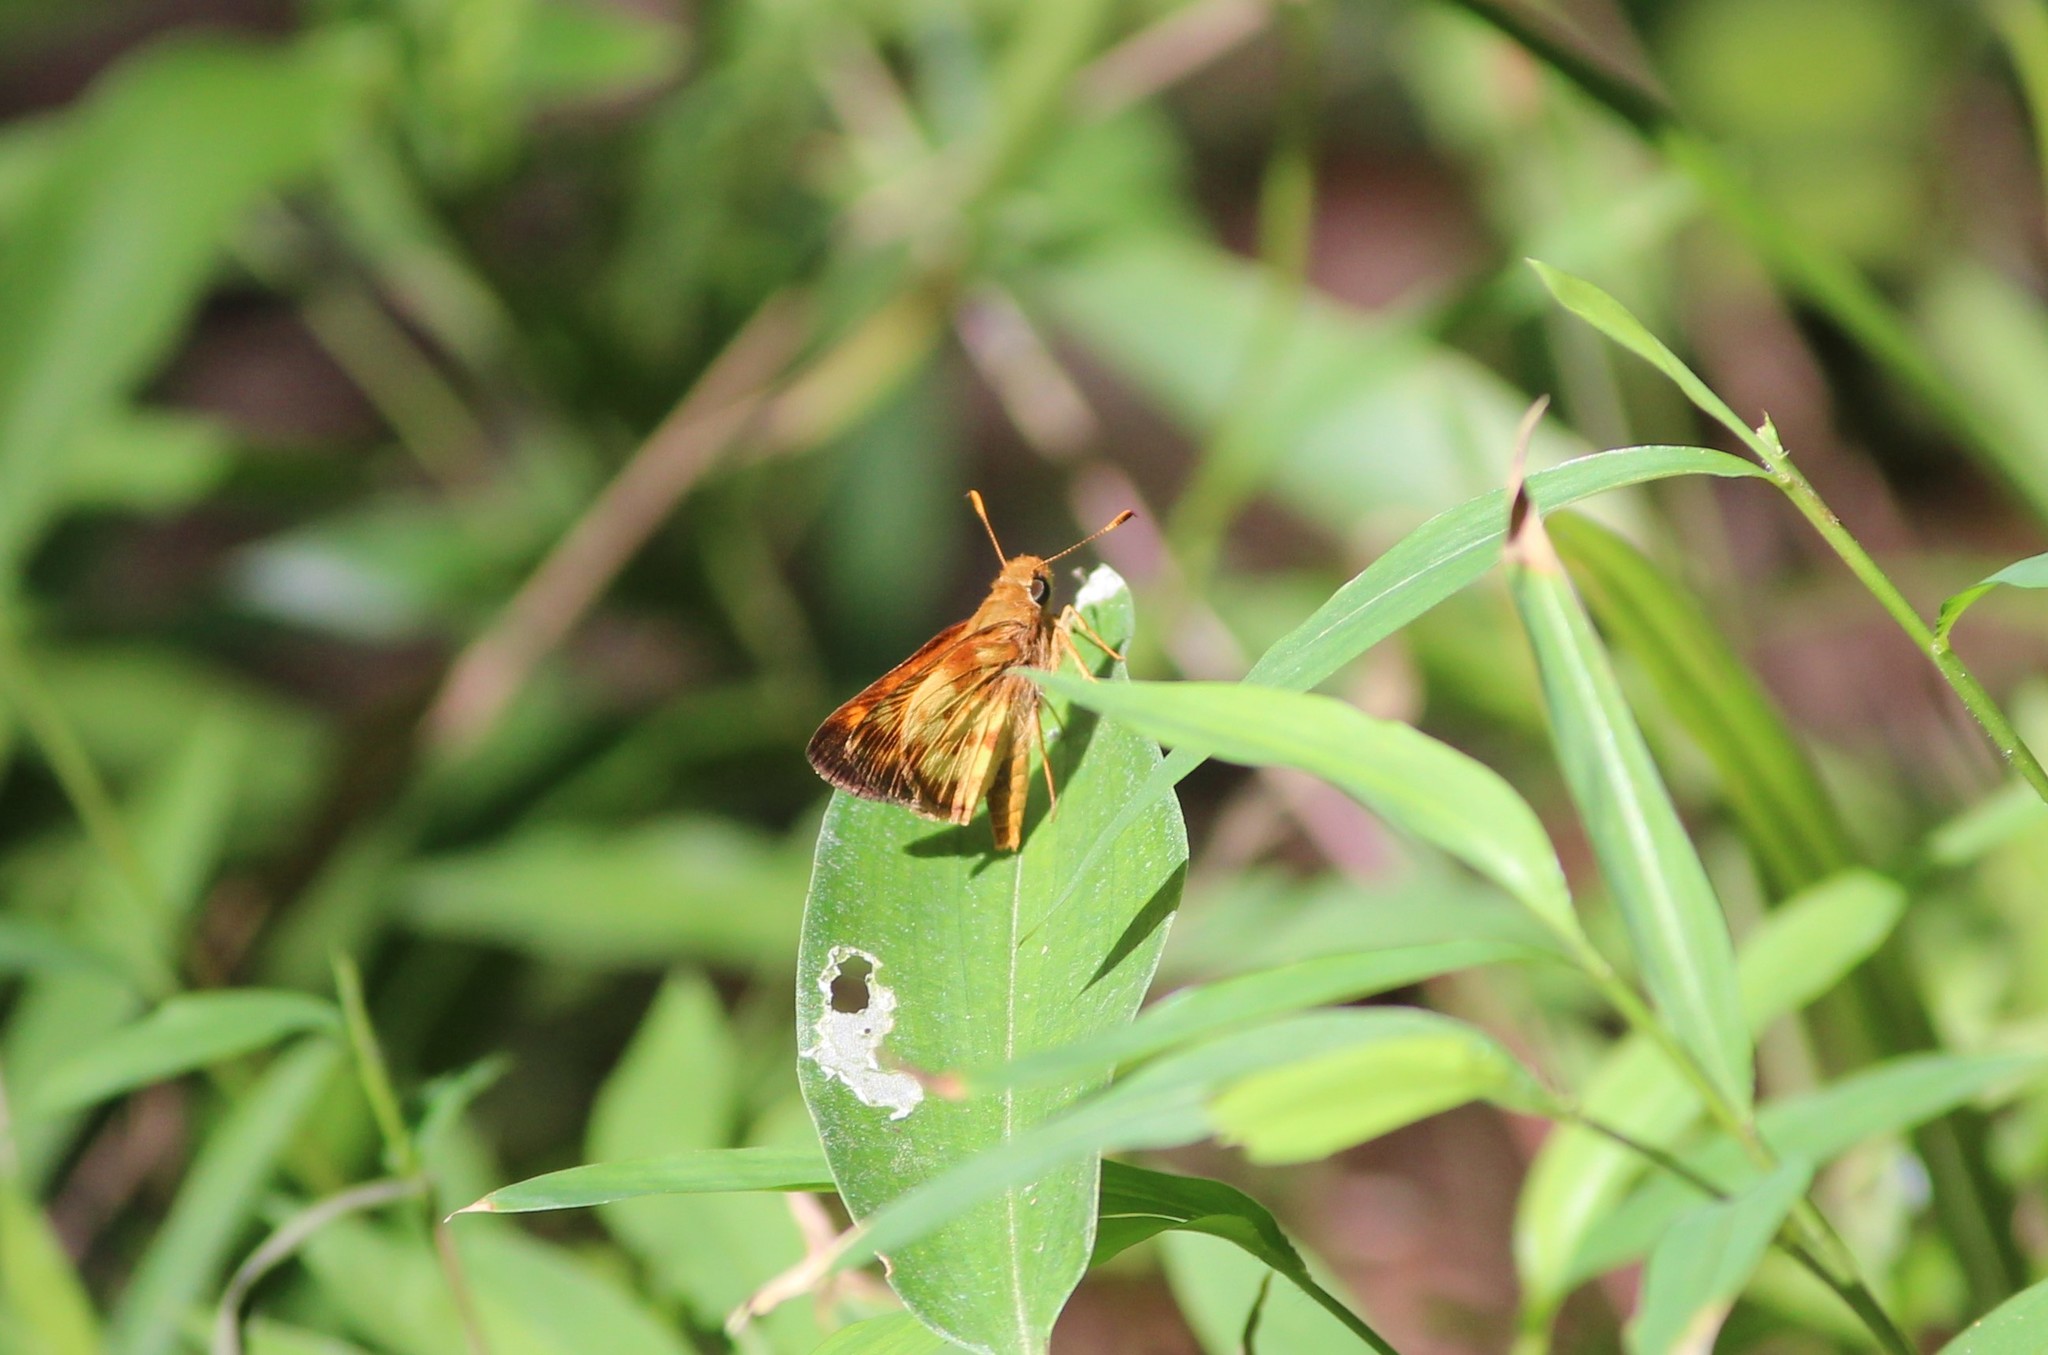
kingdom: Animalia
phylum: Arthropoda
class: Insecta
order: Lepidoptera
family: Hesperiidae
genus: Lon
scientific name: Lon zabulon
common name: Zabulon skipper
